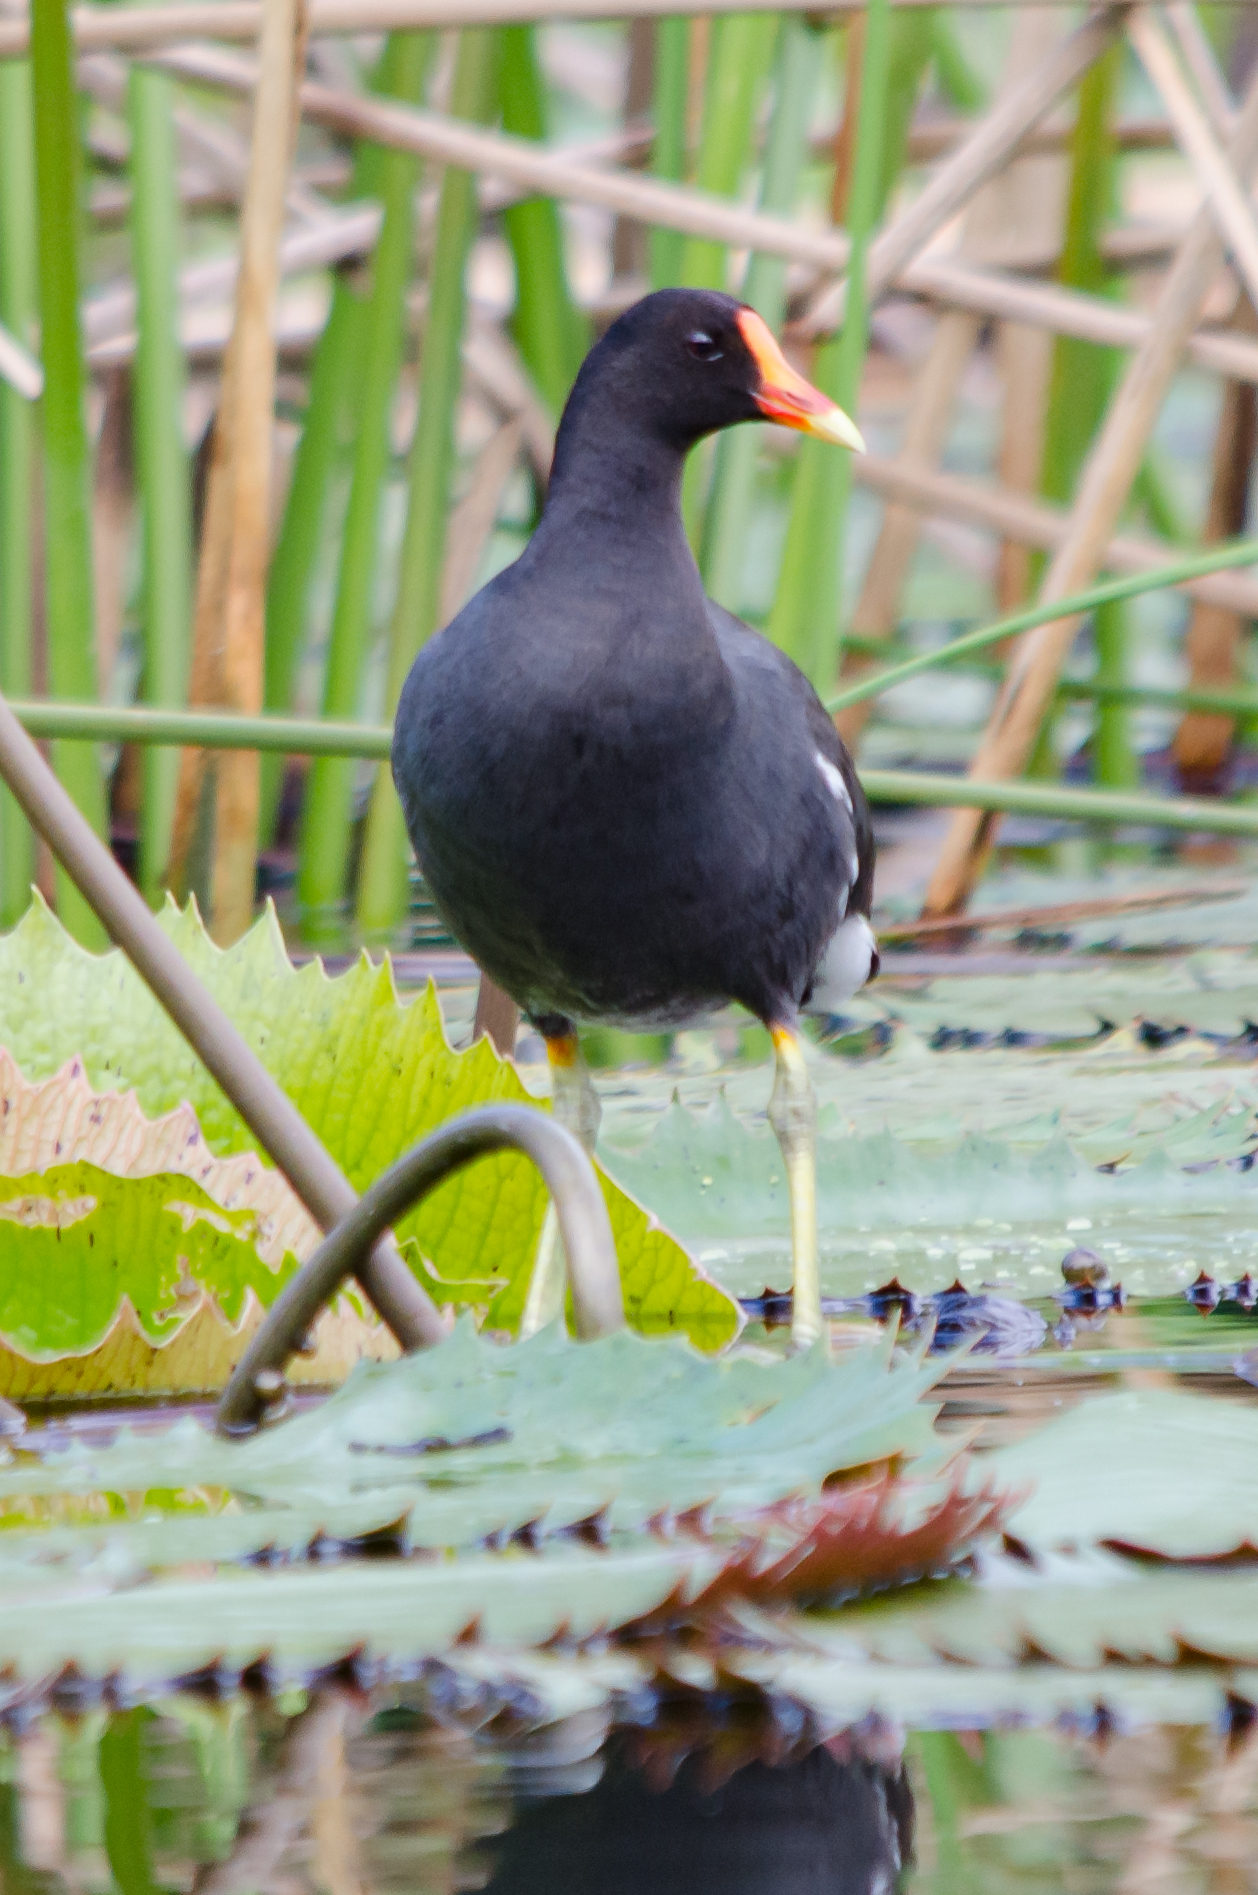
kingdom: Animalia
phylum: Chordata
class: Aves
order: Gruiformes
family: Rallidae
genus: Gallinula
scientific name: Gallinula chloropus
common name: Common moorhen
